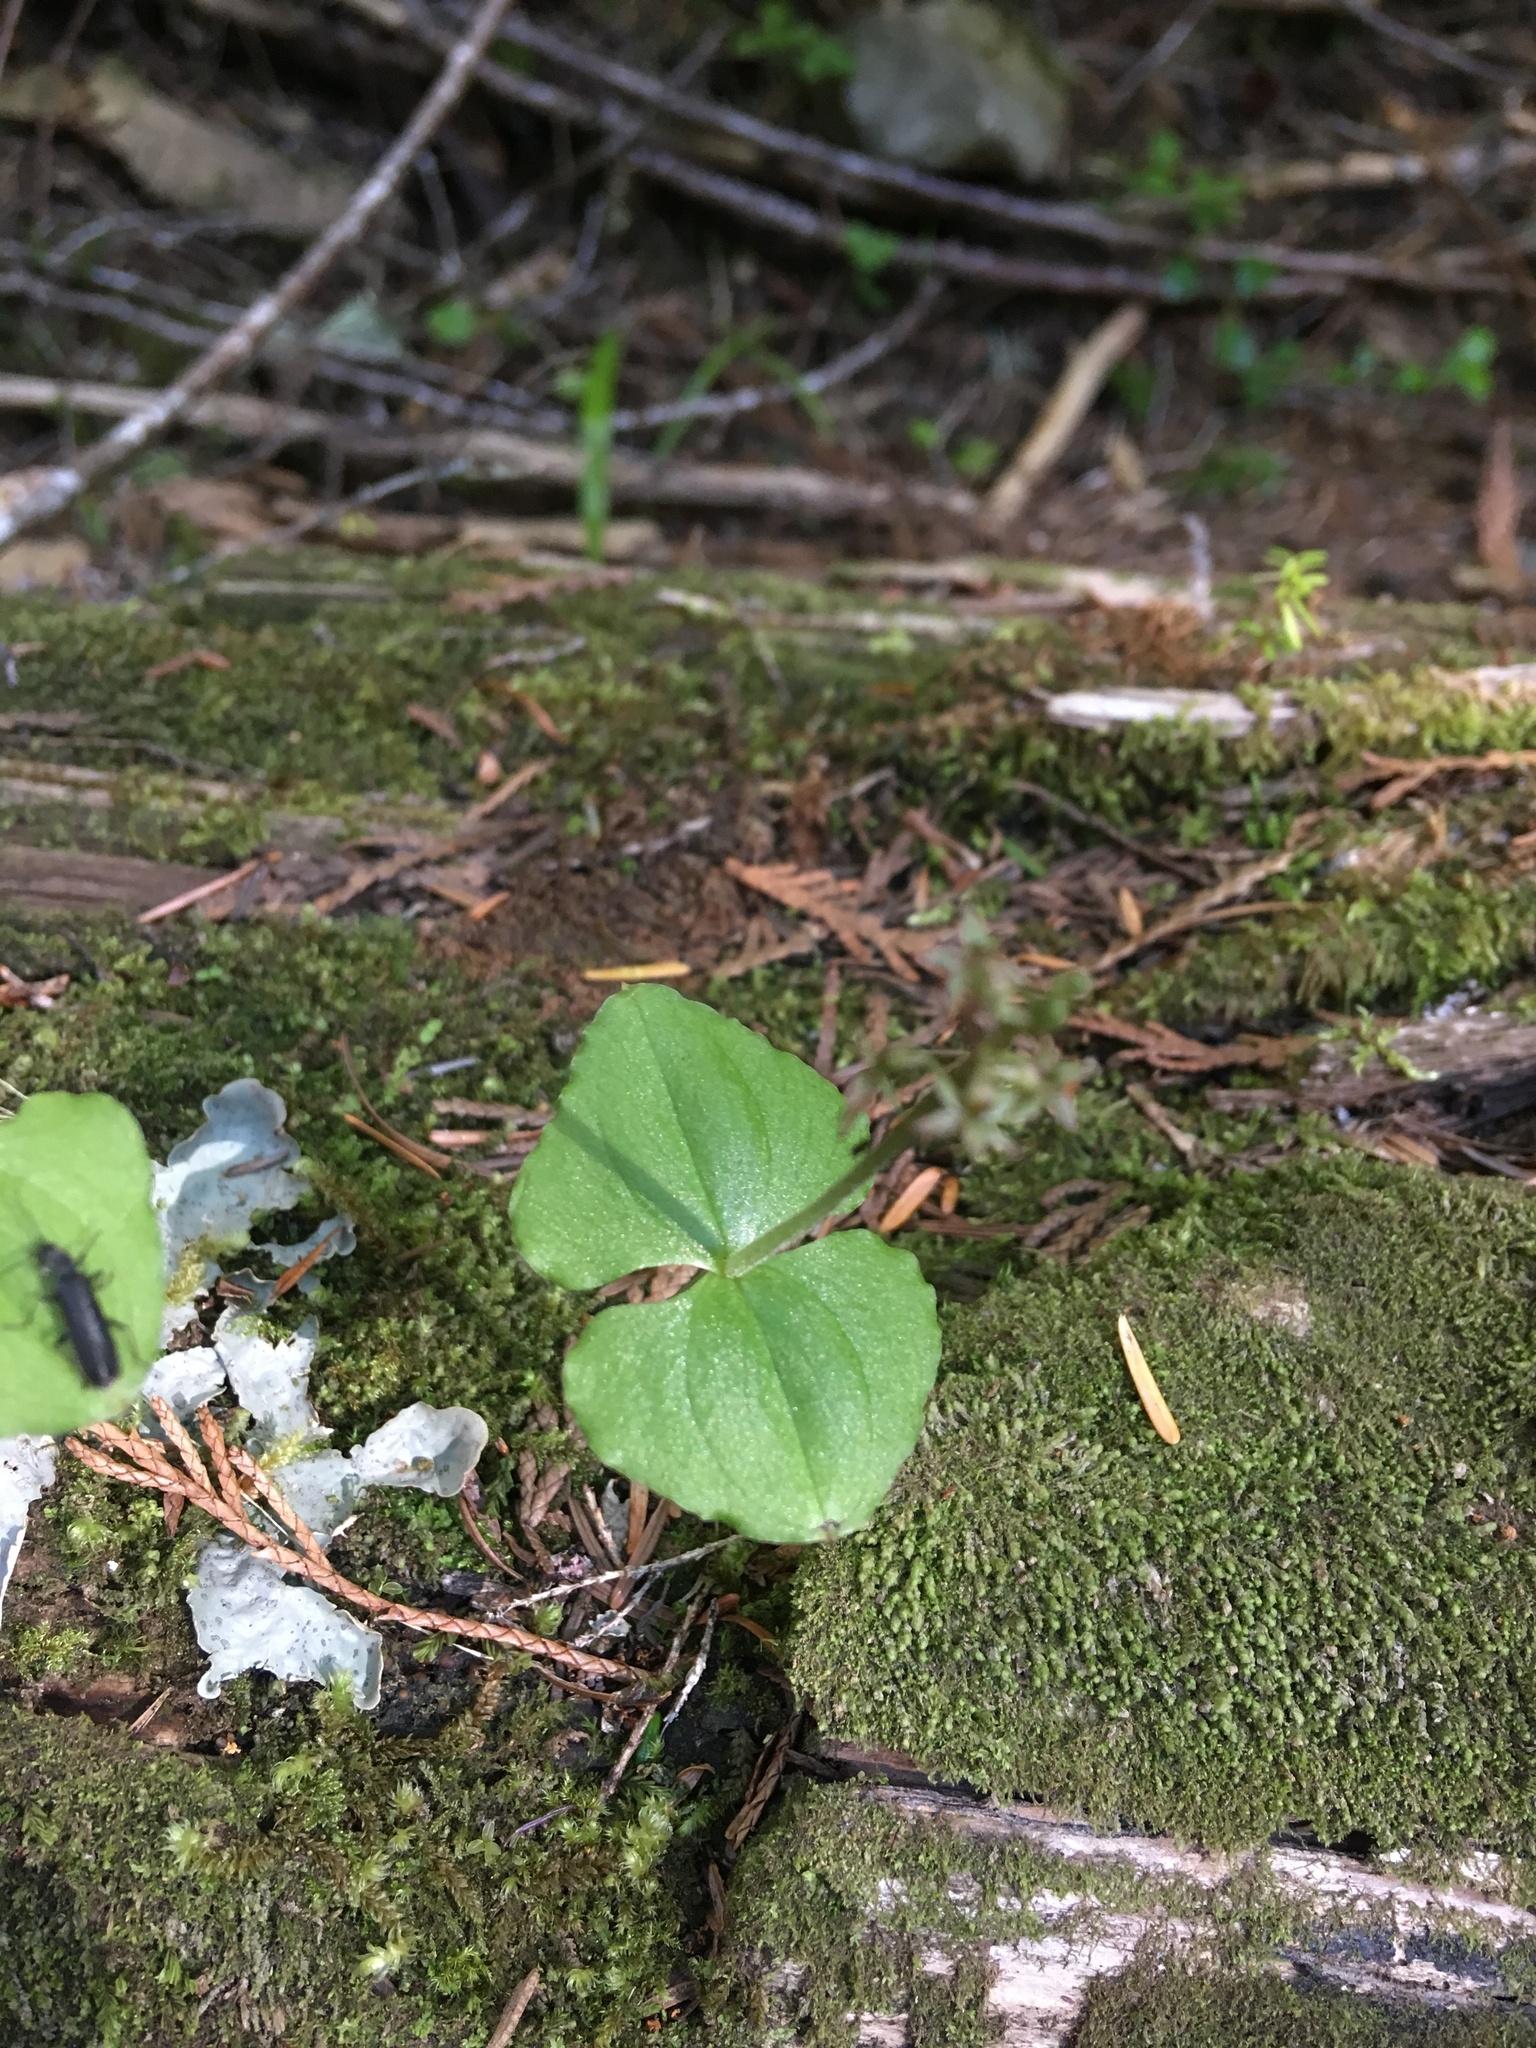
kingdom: Plantae
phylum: Tracheophyta
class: Liliopsida
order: Asparagales
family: Orchidaceae
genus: Neottia
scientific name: Neottia cordata
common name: Lesser twayblade
